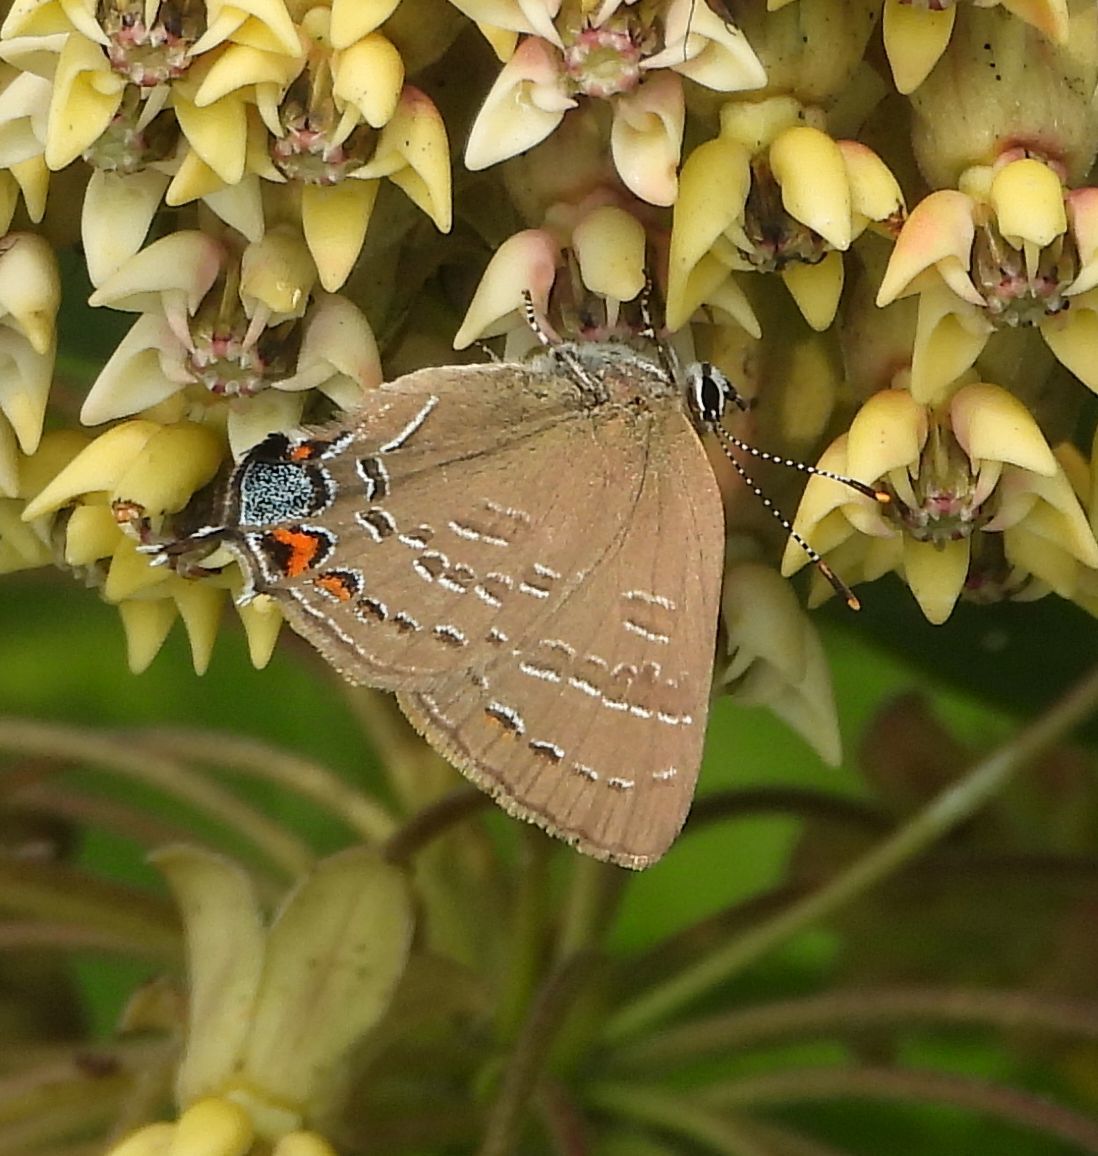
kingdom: Animalia
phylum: Arthropoda
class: Insecta
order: Lepidoptera
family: Lycaenidae
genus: Satyrium
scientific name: Satyrium calanus
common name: Banded hairstreak
